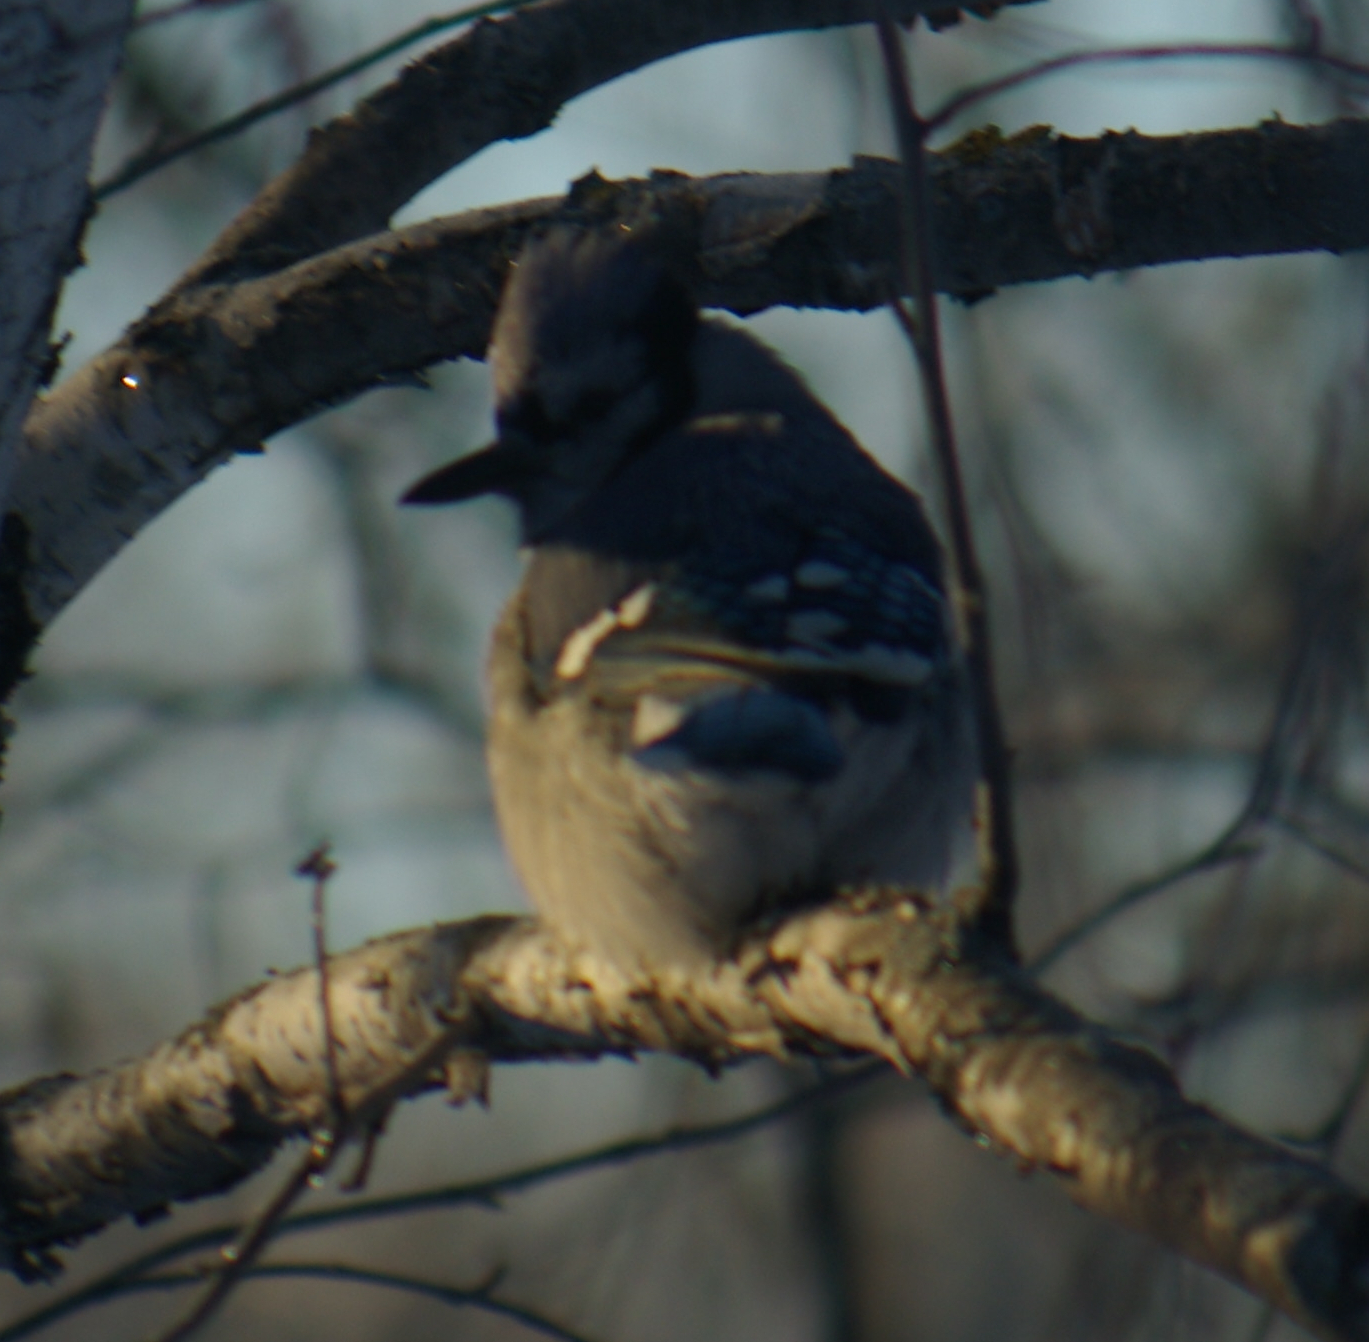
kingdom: Animalia
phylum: Chordata
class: Aves
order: Passeriformes
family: Corvidae
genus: Cyanocitta
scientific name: Cyanocitta cristata
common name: Blue jay
